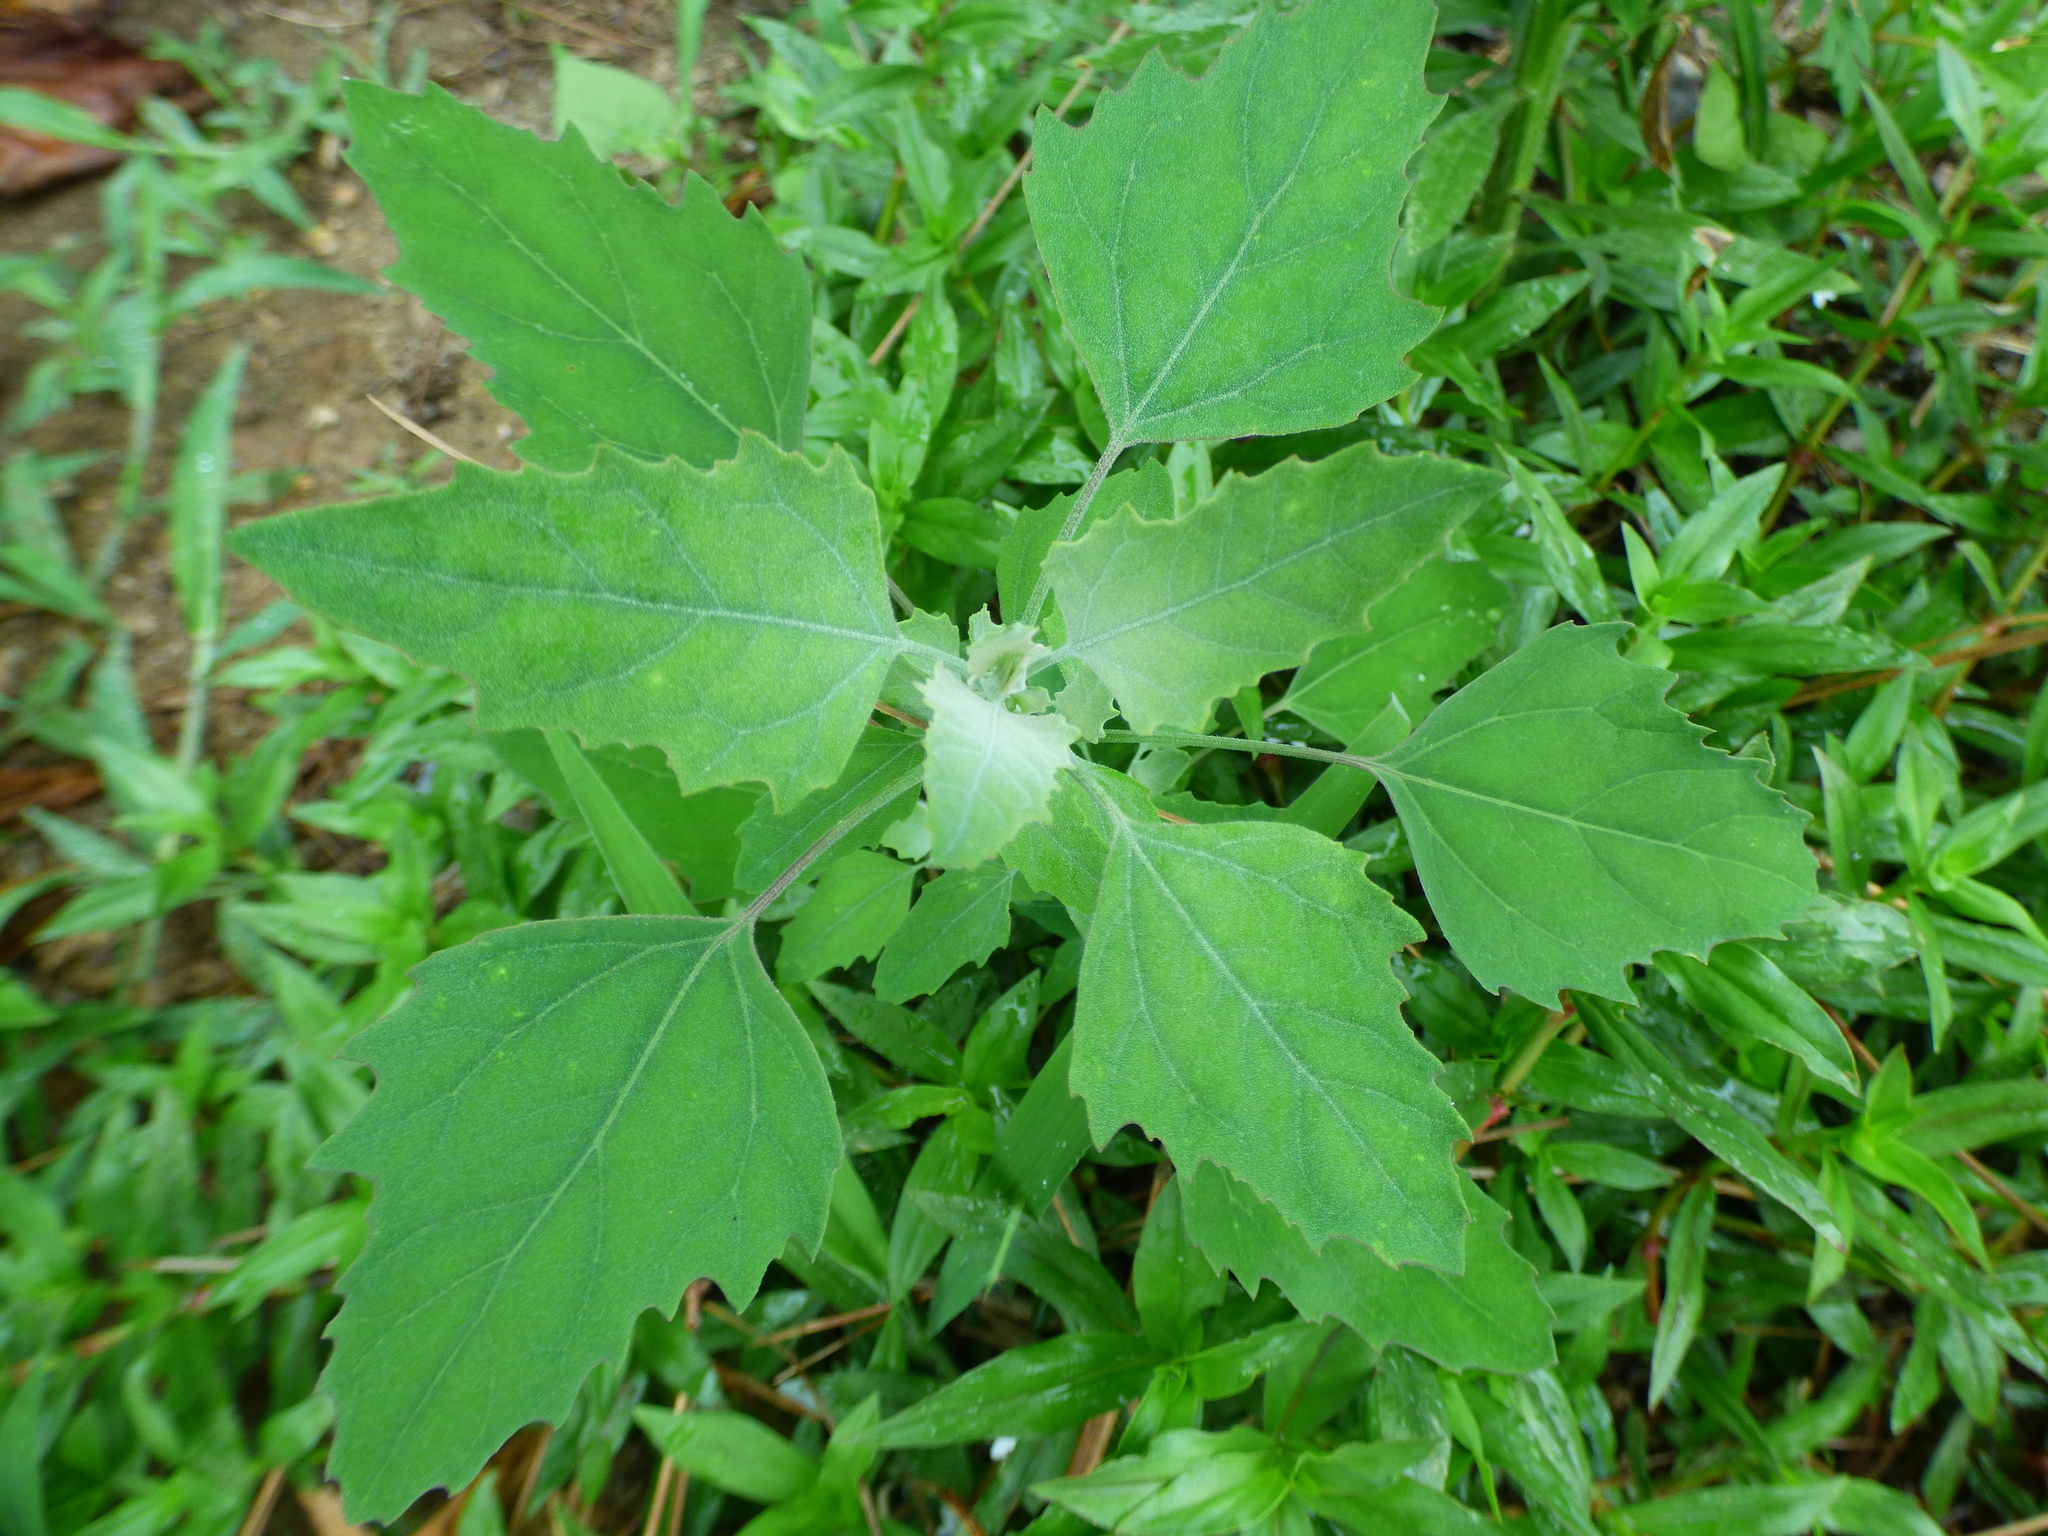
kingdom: Plantae
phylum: Tracheophyta
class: Magnoliopsida
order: Caryophyllales
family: Amaranthaceae
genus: Chenopodium
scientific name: Chenopodium album
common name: Fat-hen
